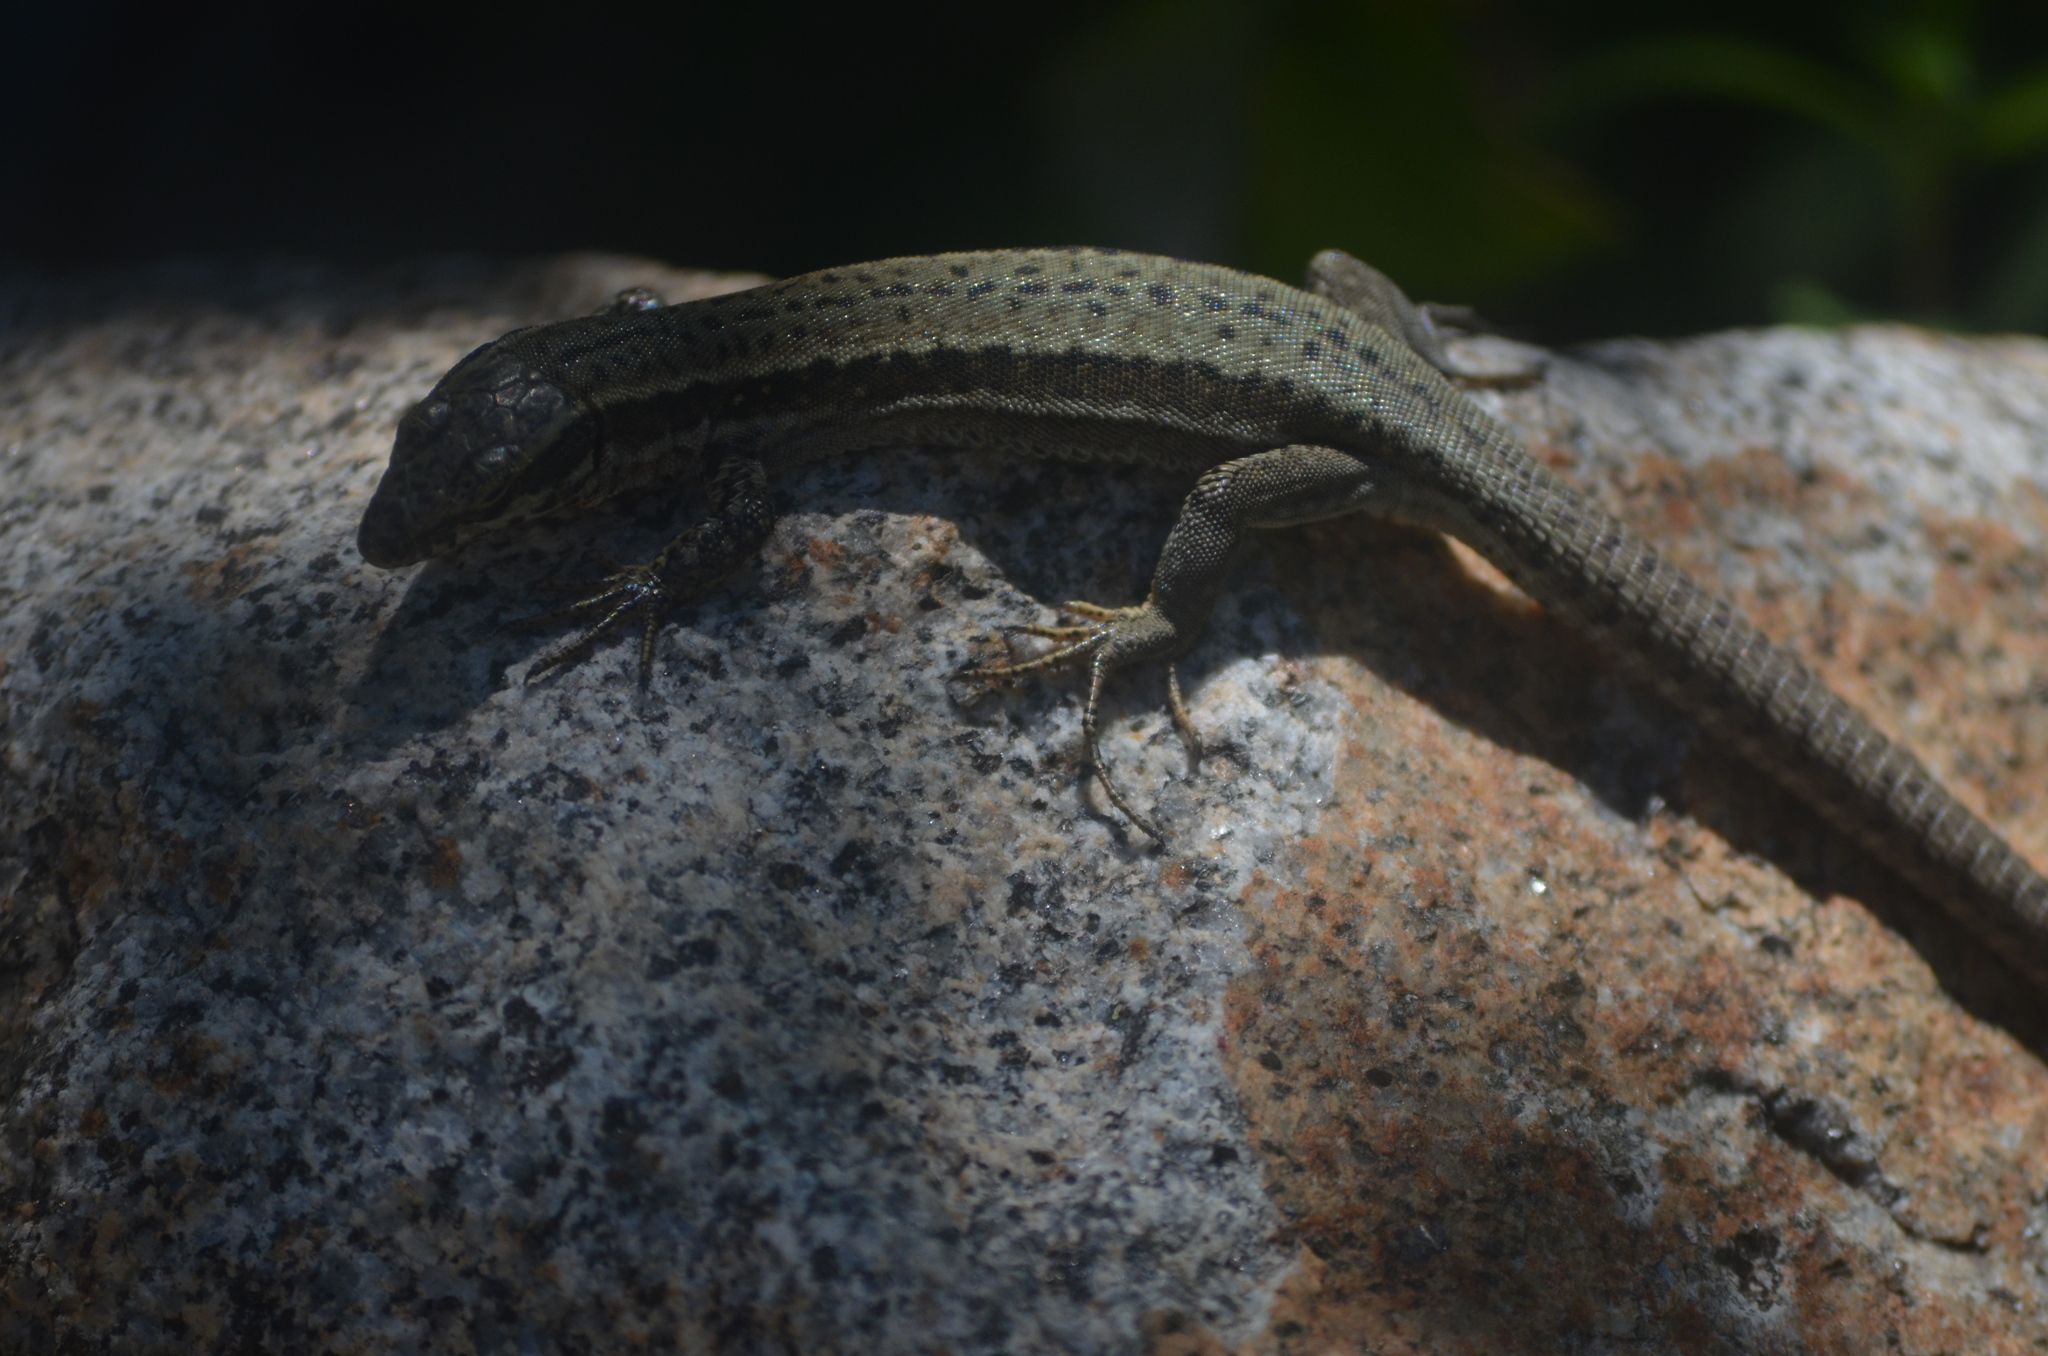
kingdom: Animalia
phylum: Chordata
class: Squamata
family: Lacertidae
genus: Podarcis
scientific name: Podarcis muralis
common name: Common wall lizard
